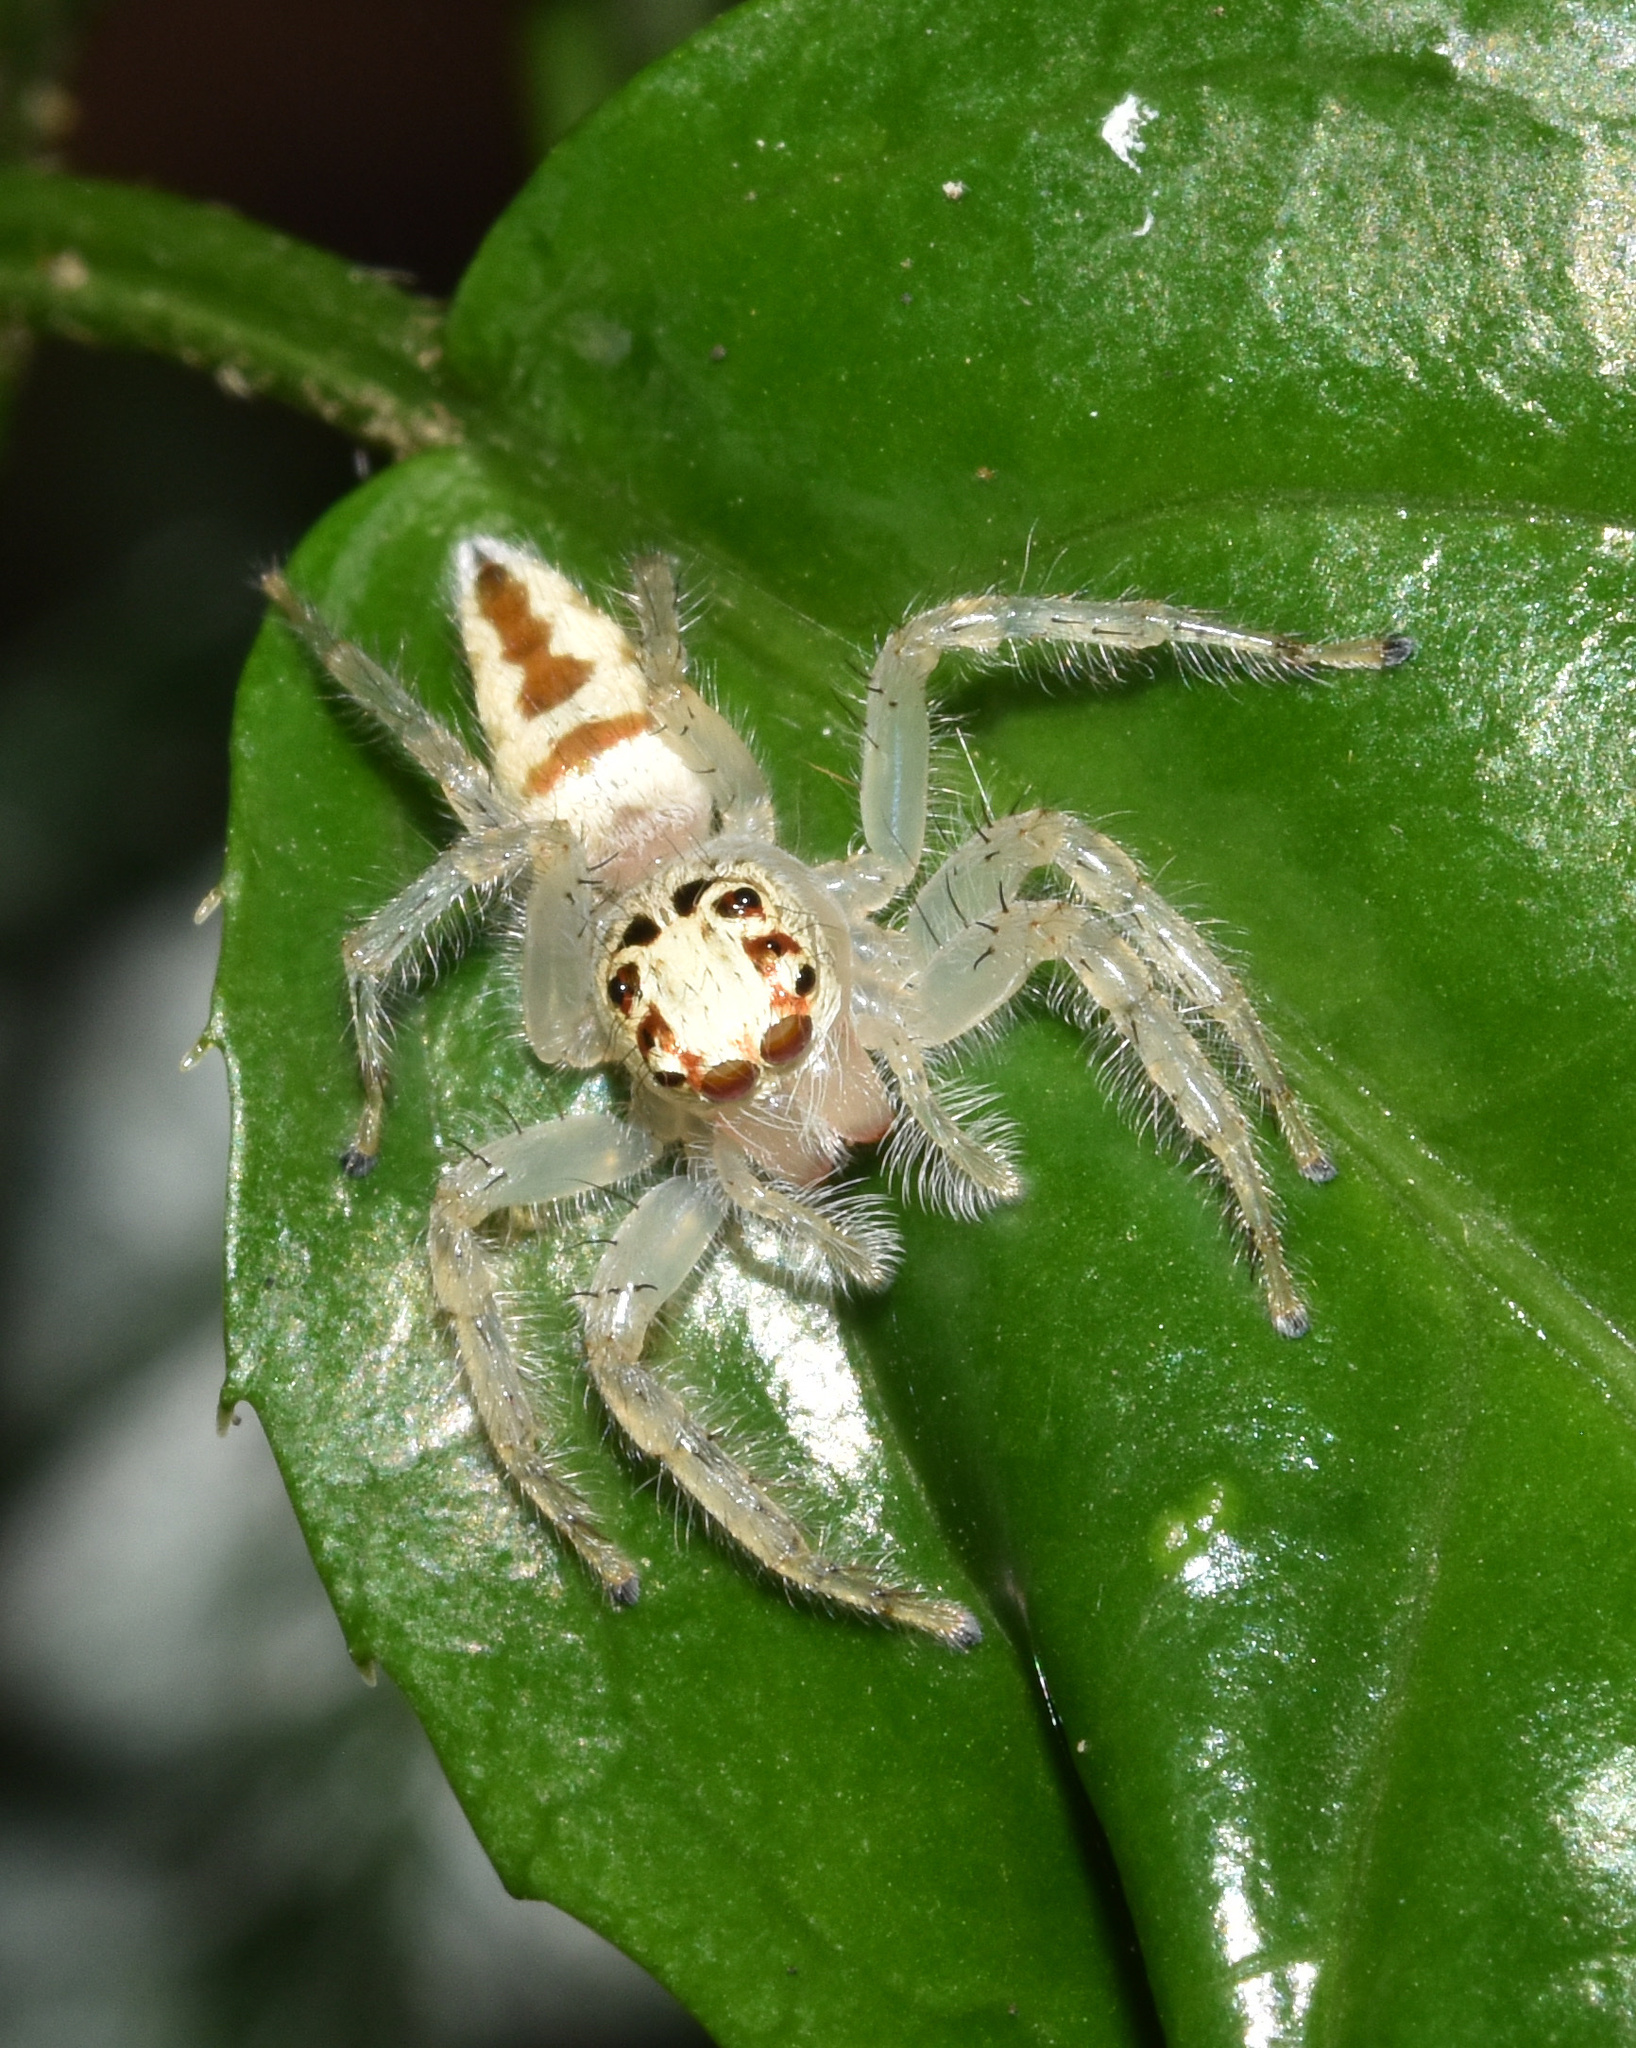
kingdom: Animalia
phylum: Arthropoda
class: Arachnida
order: Araneae
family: Salticidae
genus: Brancus
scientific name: Brancus mustelus
